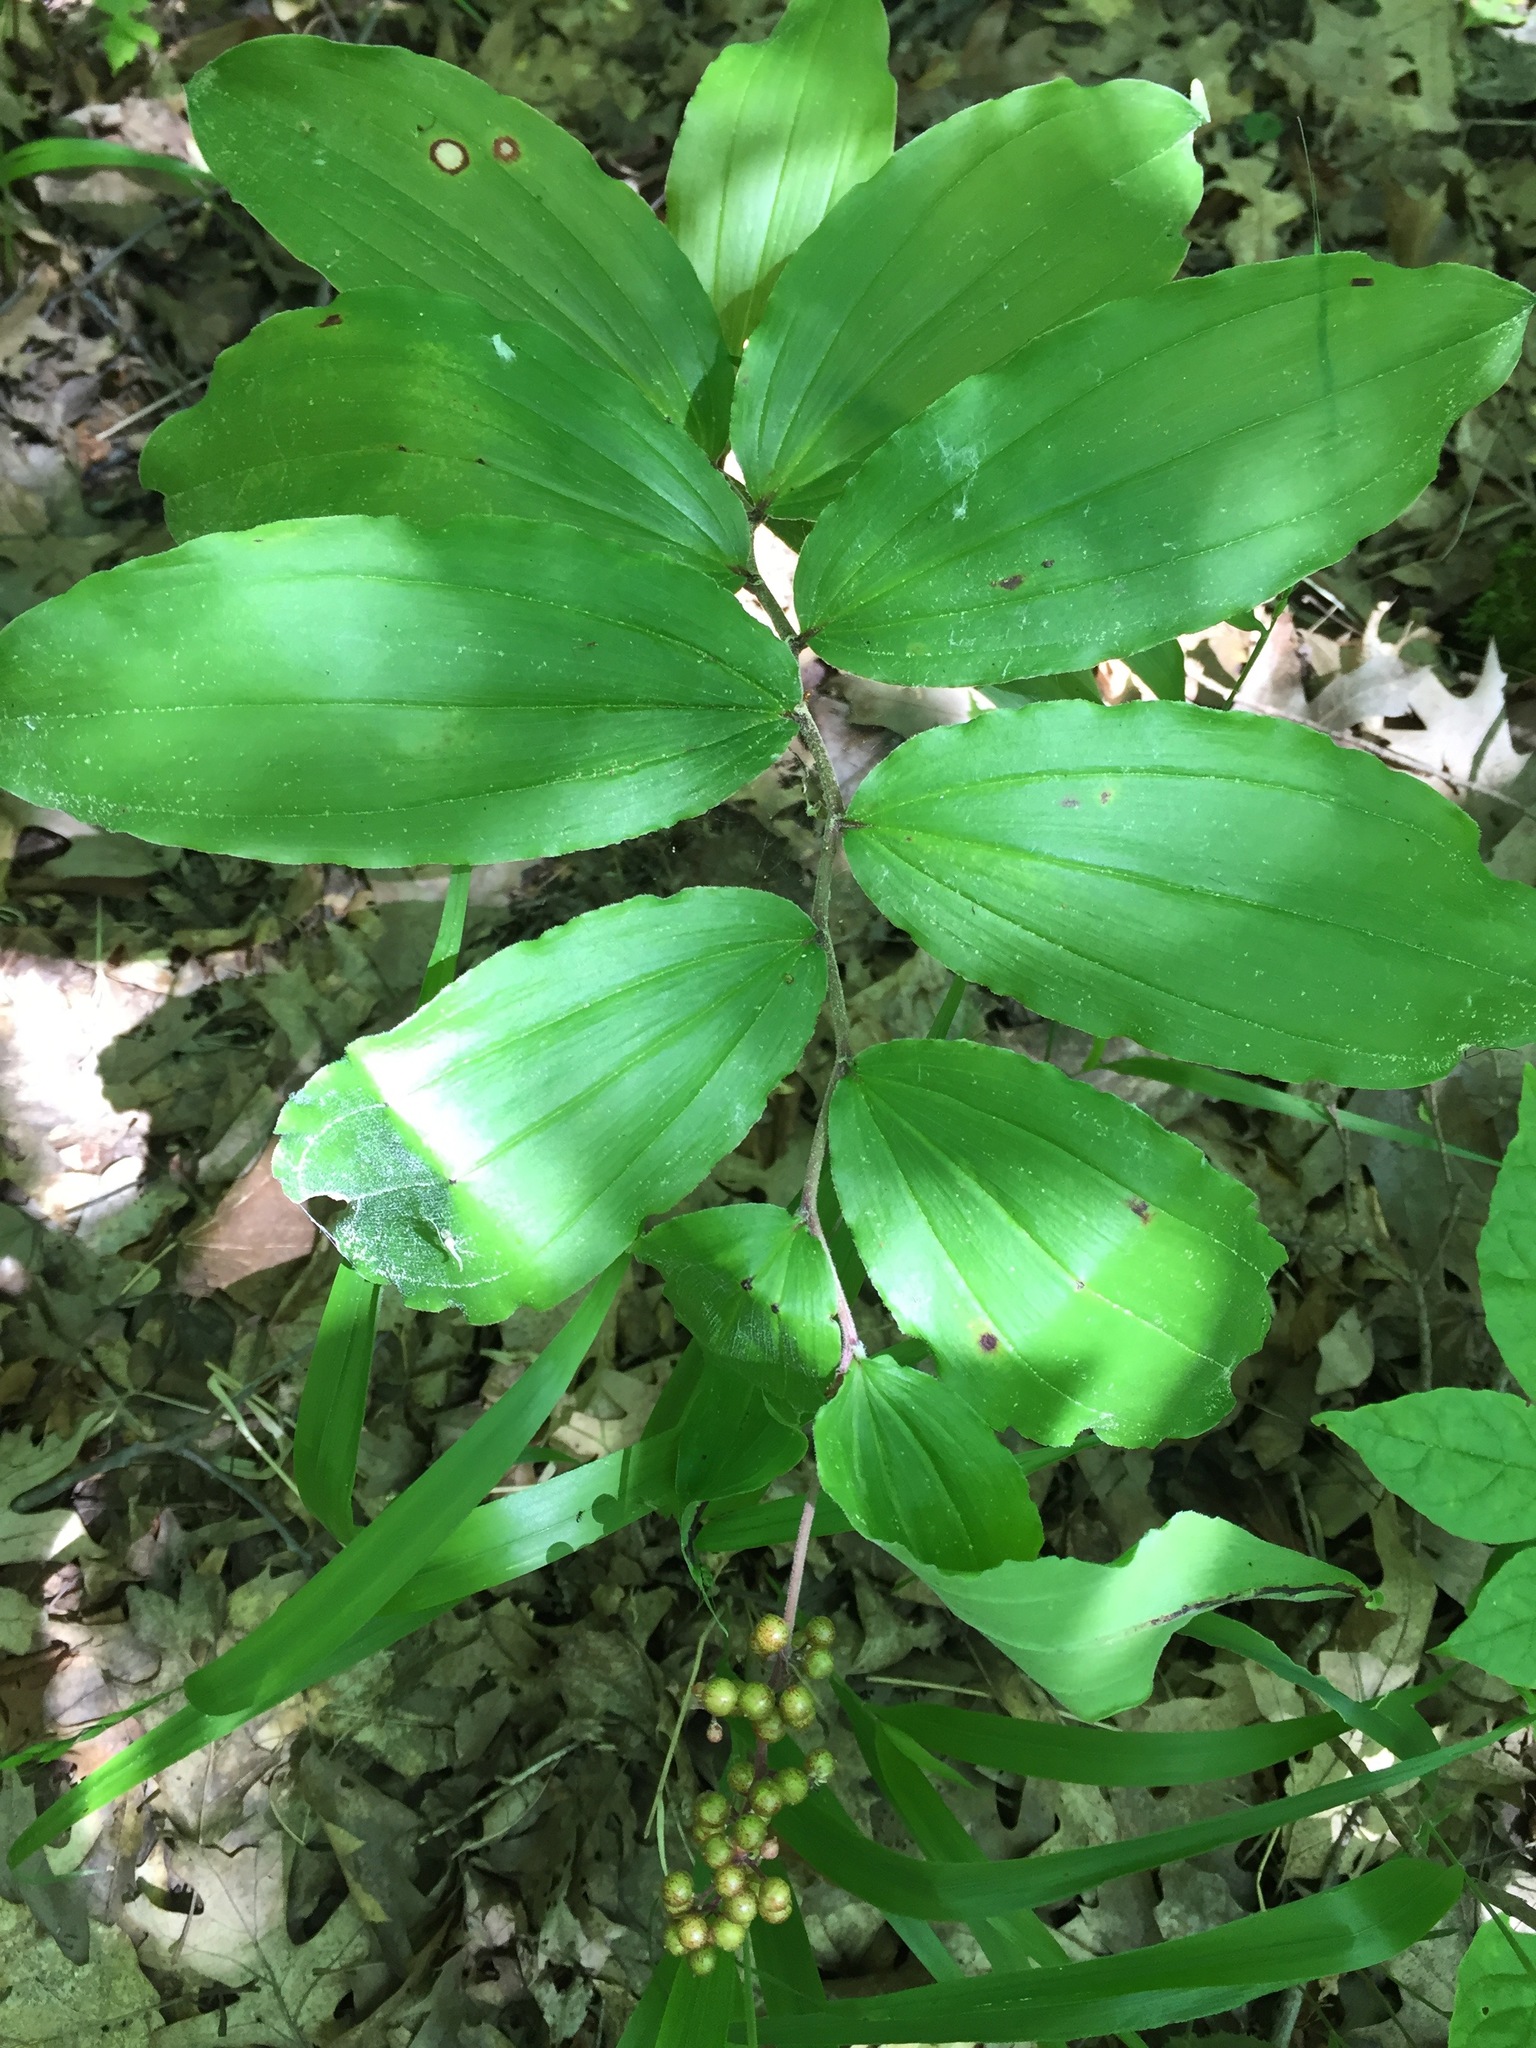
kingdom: Plantae
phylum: Tracheophyta
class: Liliopsida
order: Asparagales
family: Asparagaceae
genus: Maianthemum
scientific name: Maianthemum racemosum
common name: False spikenard
